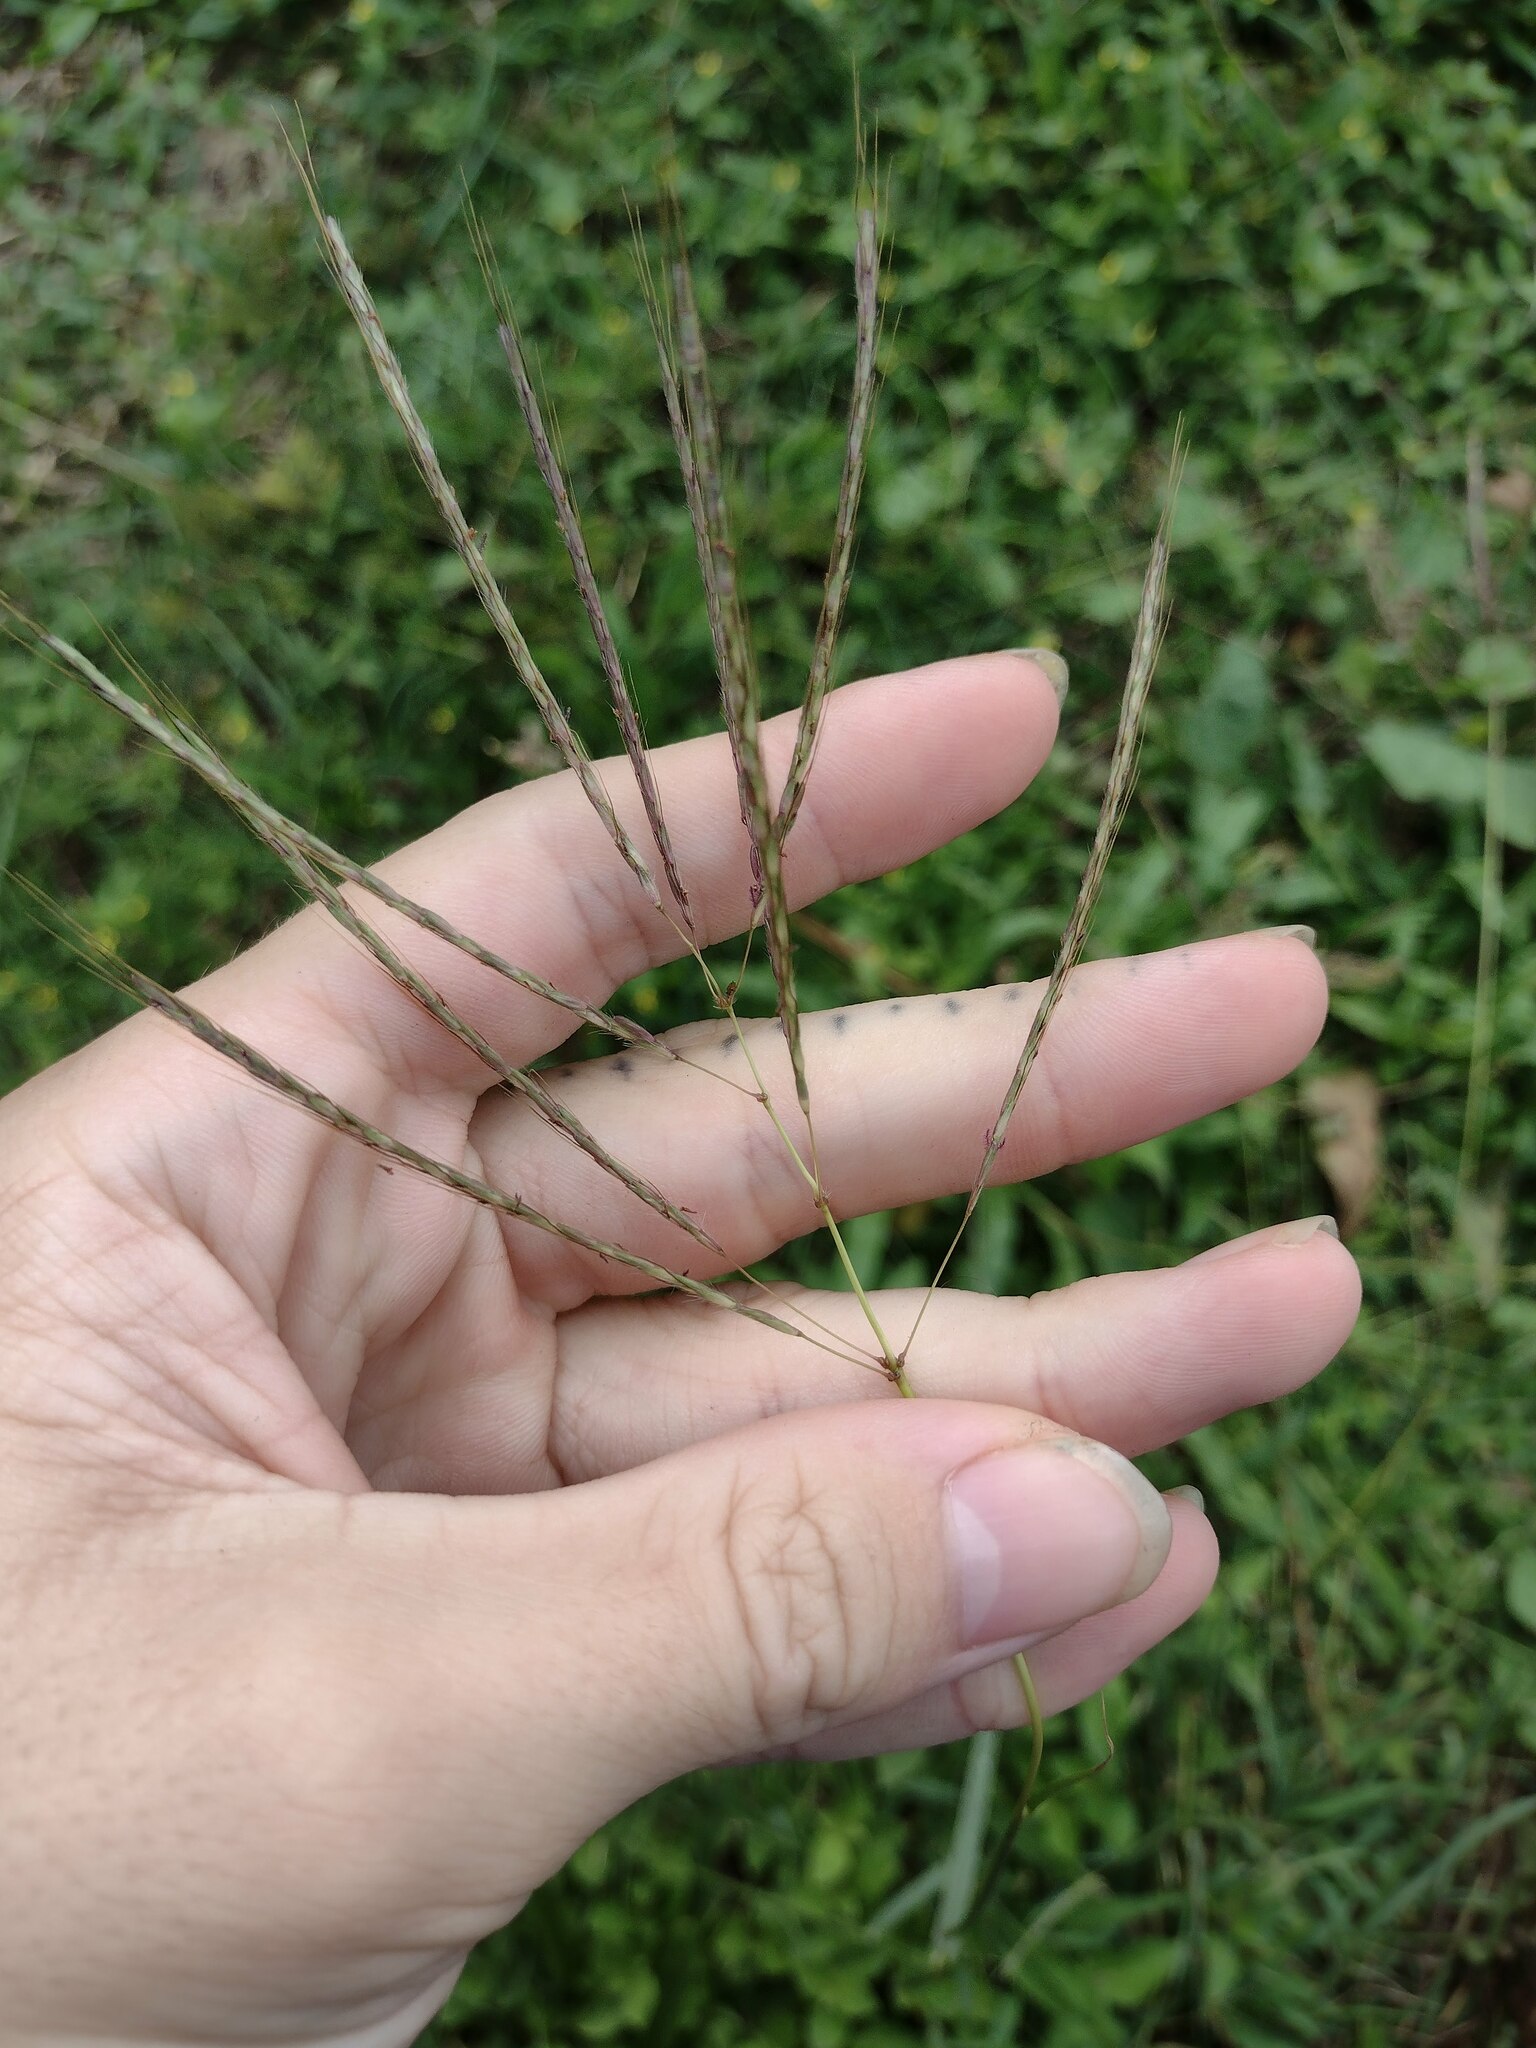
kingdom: Plantae
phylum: Tracheophyta
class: Liliopsida
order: Poales
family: Poaceae
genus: Dichanthium
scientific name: Dichanthium annulatum
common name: Kleberg's bluestem
